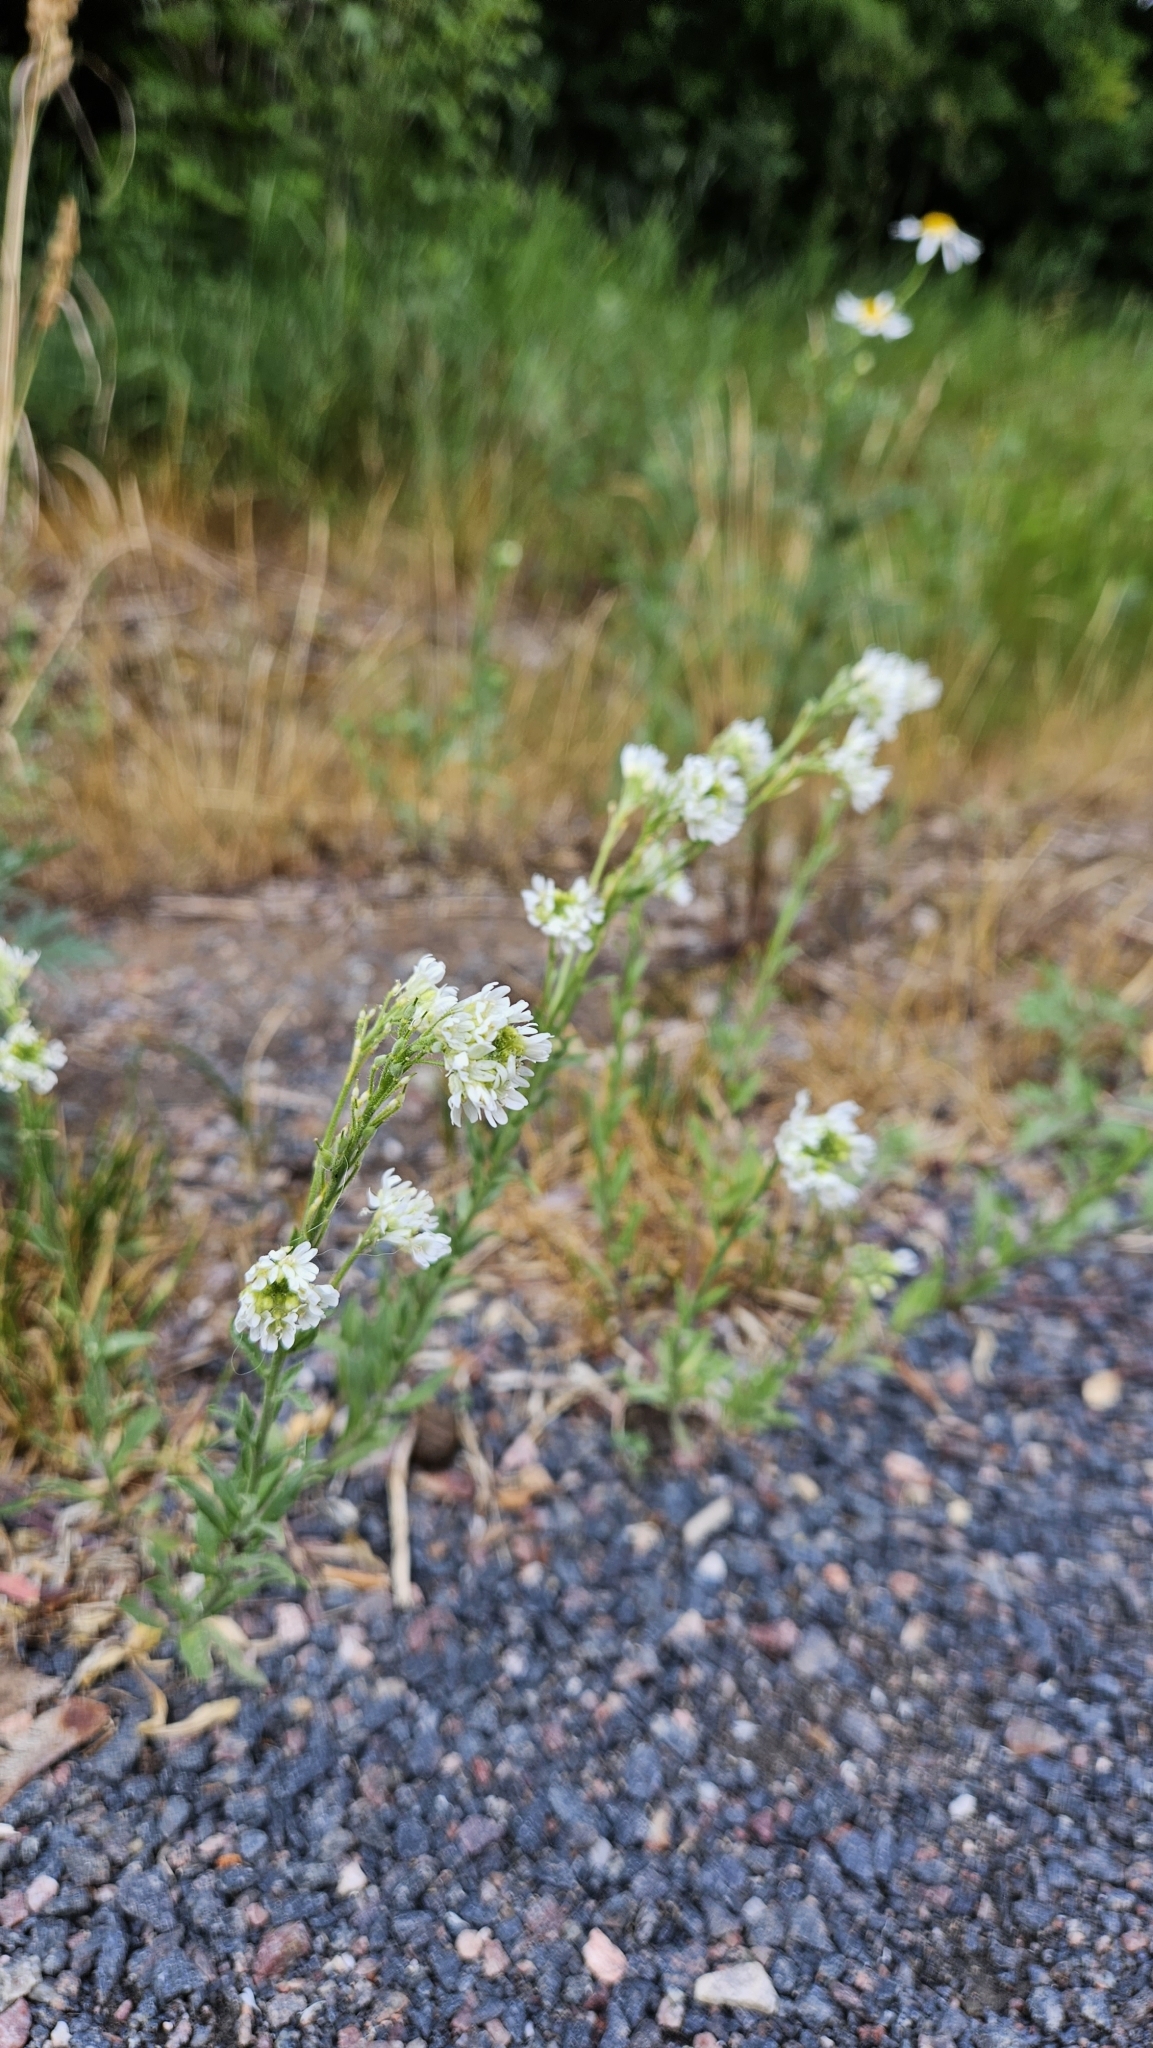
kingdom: Plantae
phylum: Tracheophyta
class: Magnoliopsida
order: Brassicales
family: Brassicaceae
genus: Berteroa
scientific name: Berteroa incana
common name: Hoary alison
